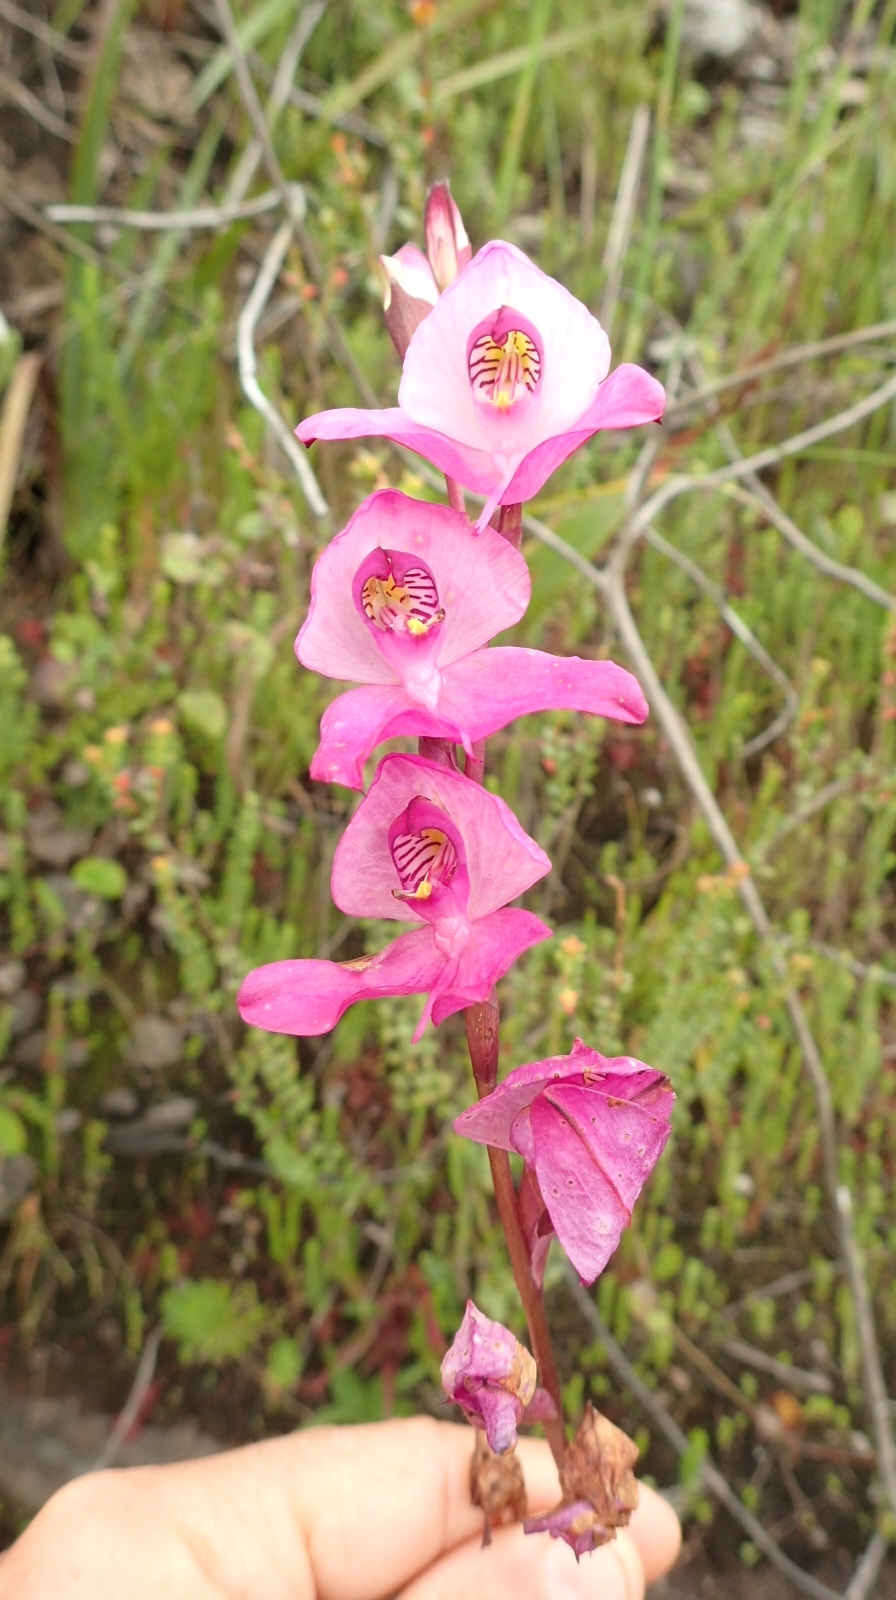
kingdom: Plantae
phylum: Tracheophyta
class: Liliopsida
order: Asparagales
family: Orchidaceae
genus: Disa
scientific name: Disa racemosa
